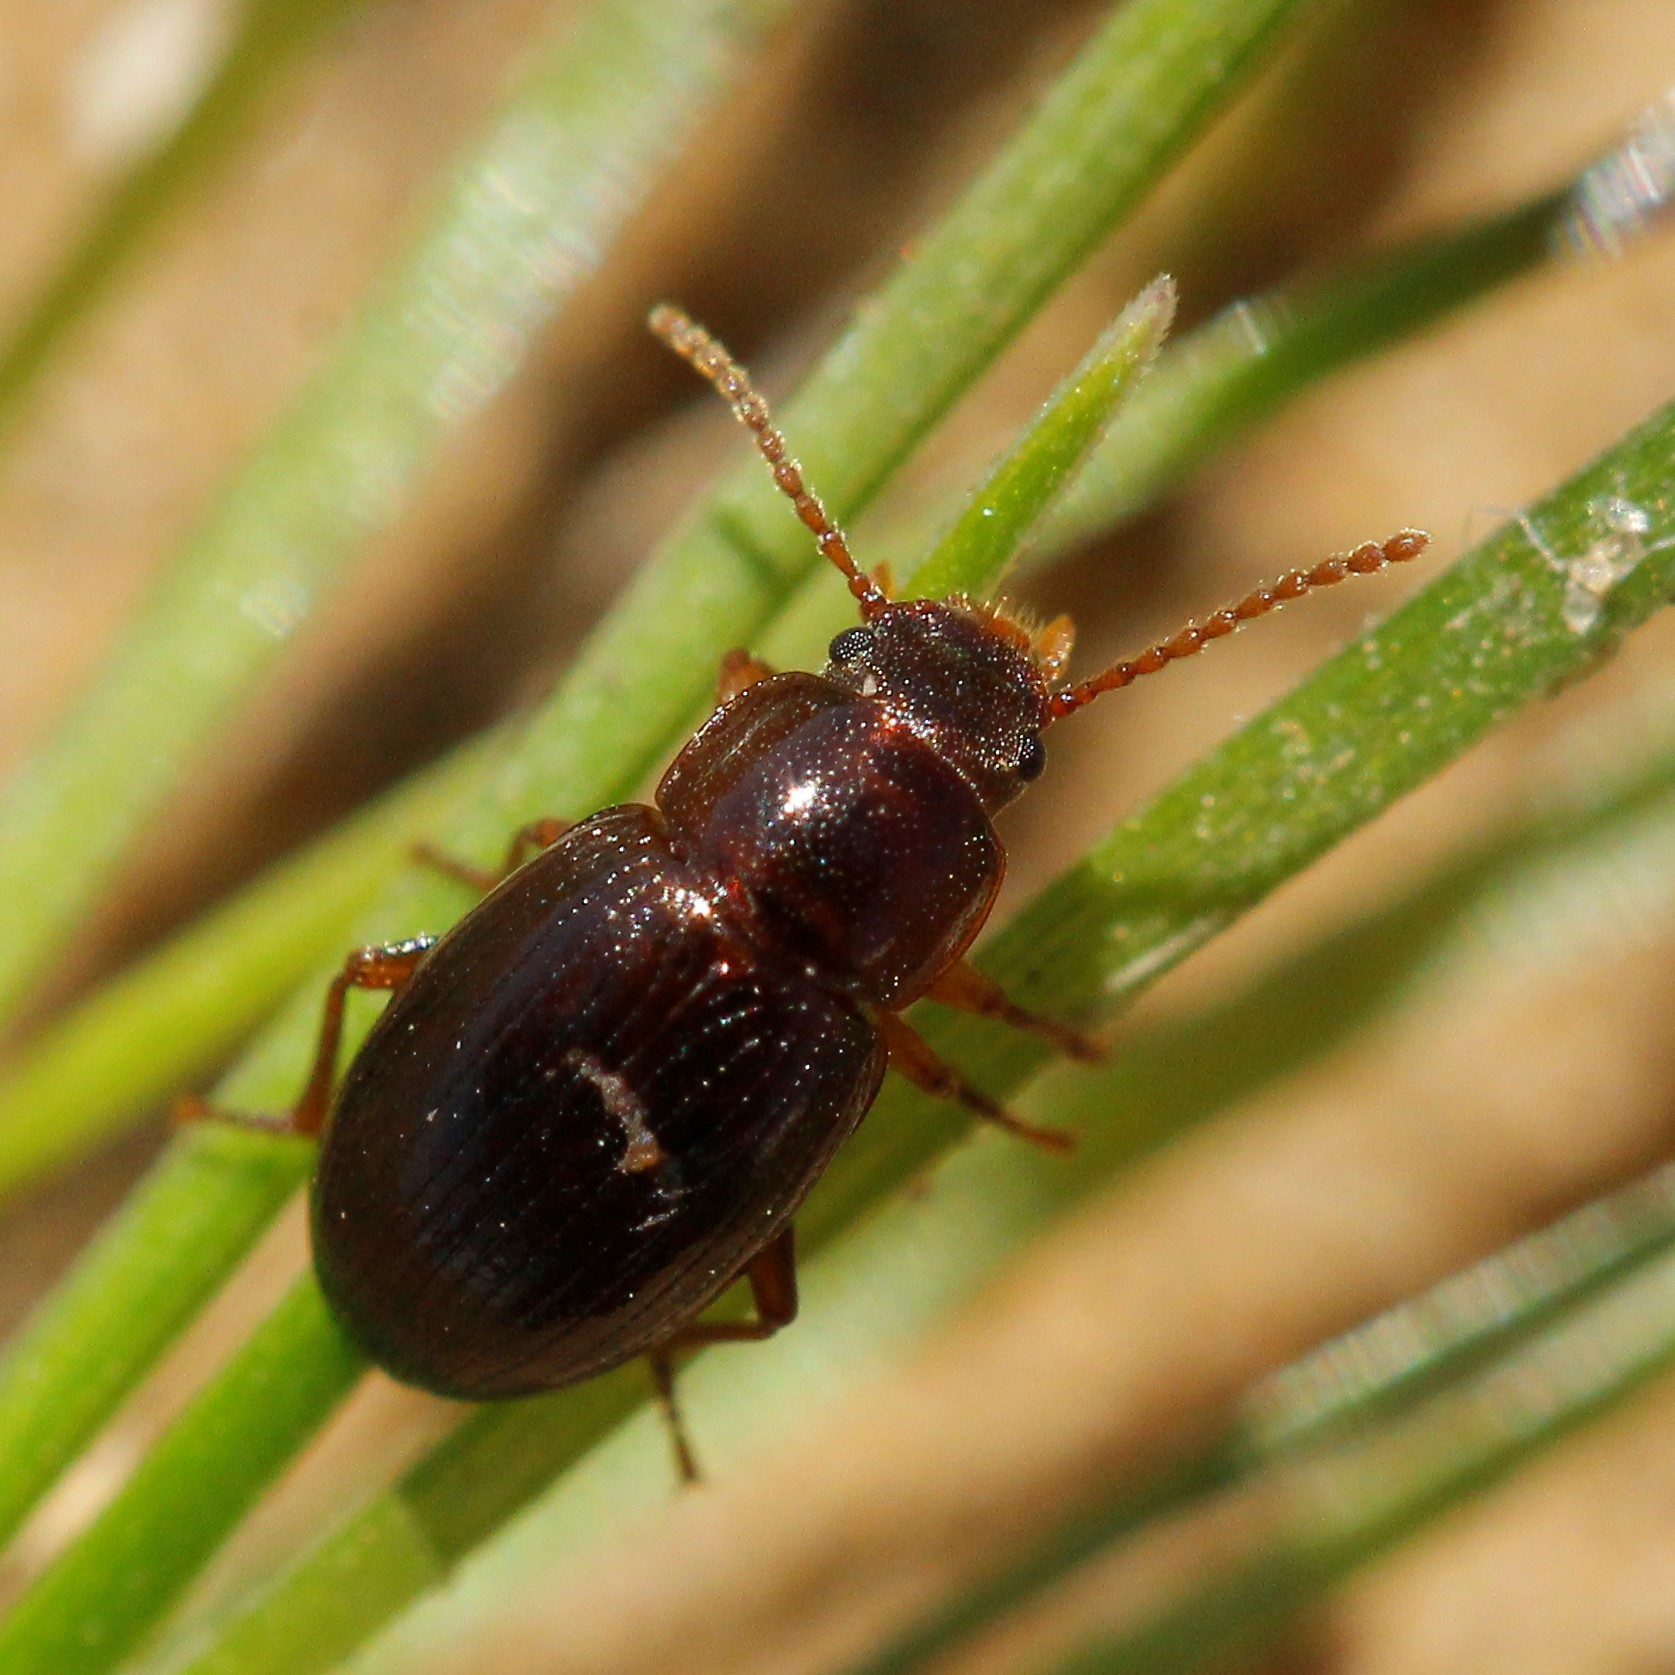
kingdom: Animalia
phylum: Arthropoda
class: Insecta
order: Coleoptera
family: Tenebrionidae
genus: Ectromopsis
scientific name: Ectromopsis
